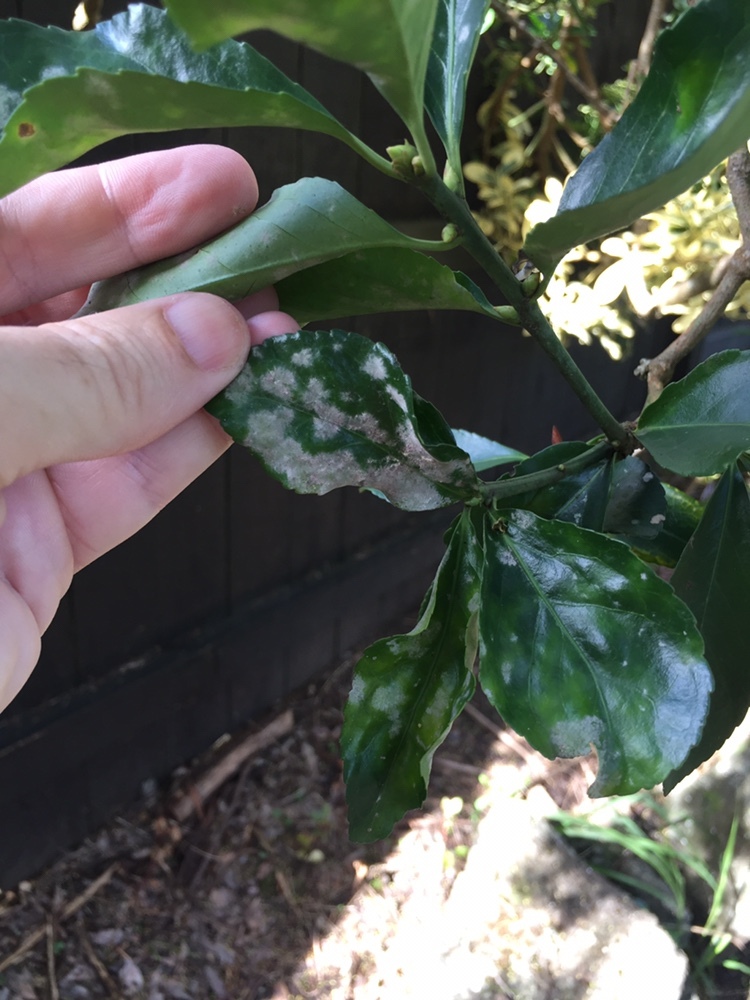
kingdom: Fungi
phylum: Ascomycota
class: Leotiomycetes
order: Helotiales
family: Erysiphaceae
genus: Erysiphe
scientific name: Erysiphe euonymicola
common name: Spindletree mildew
